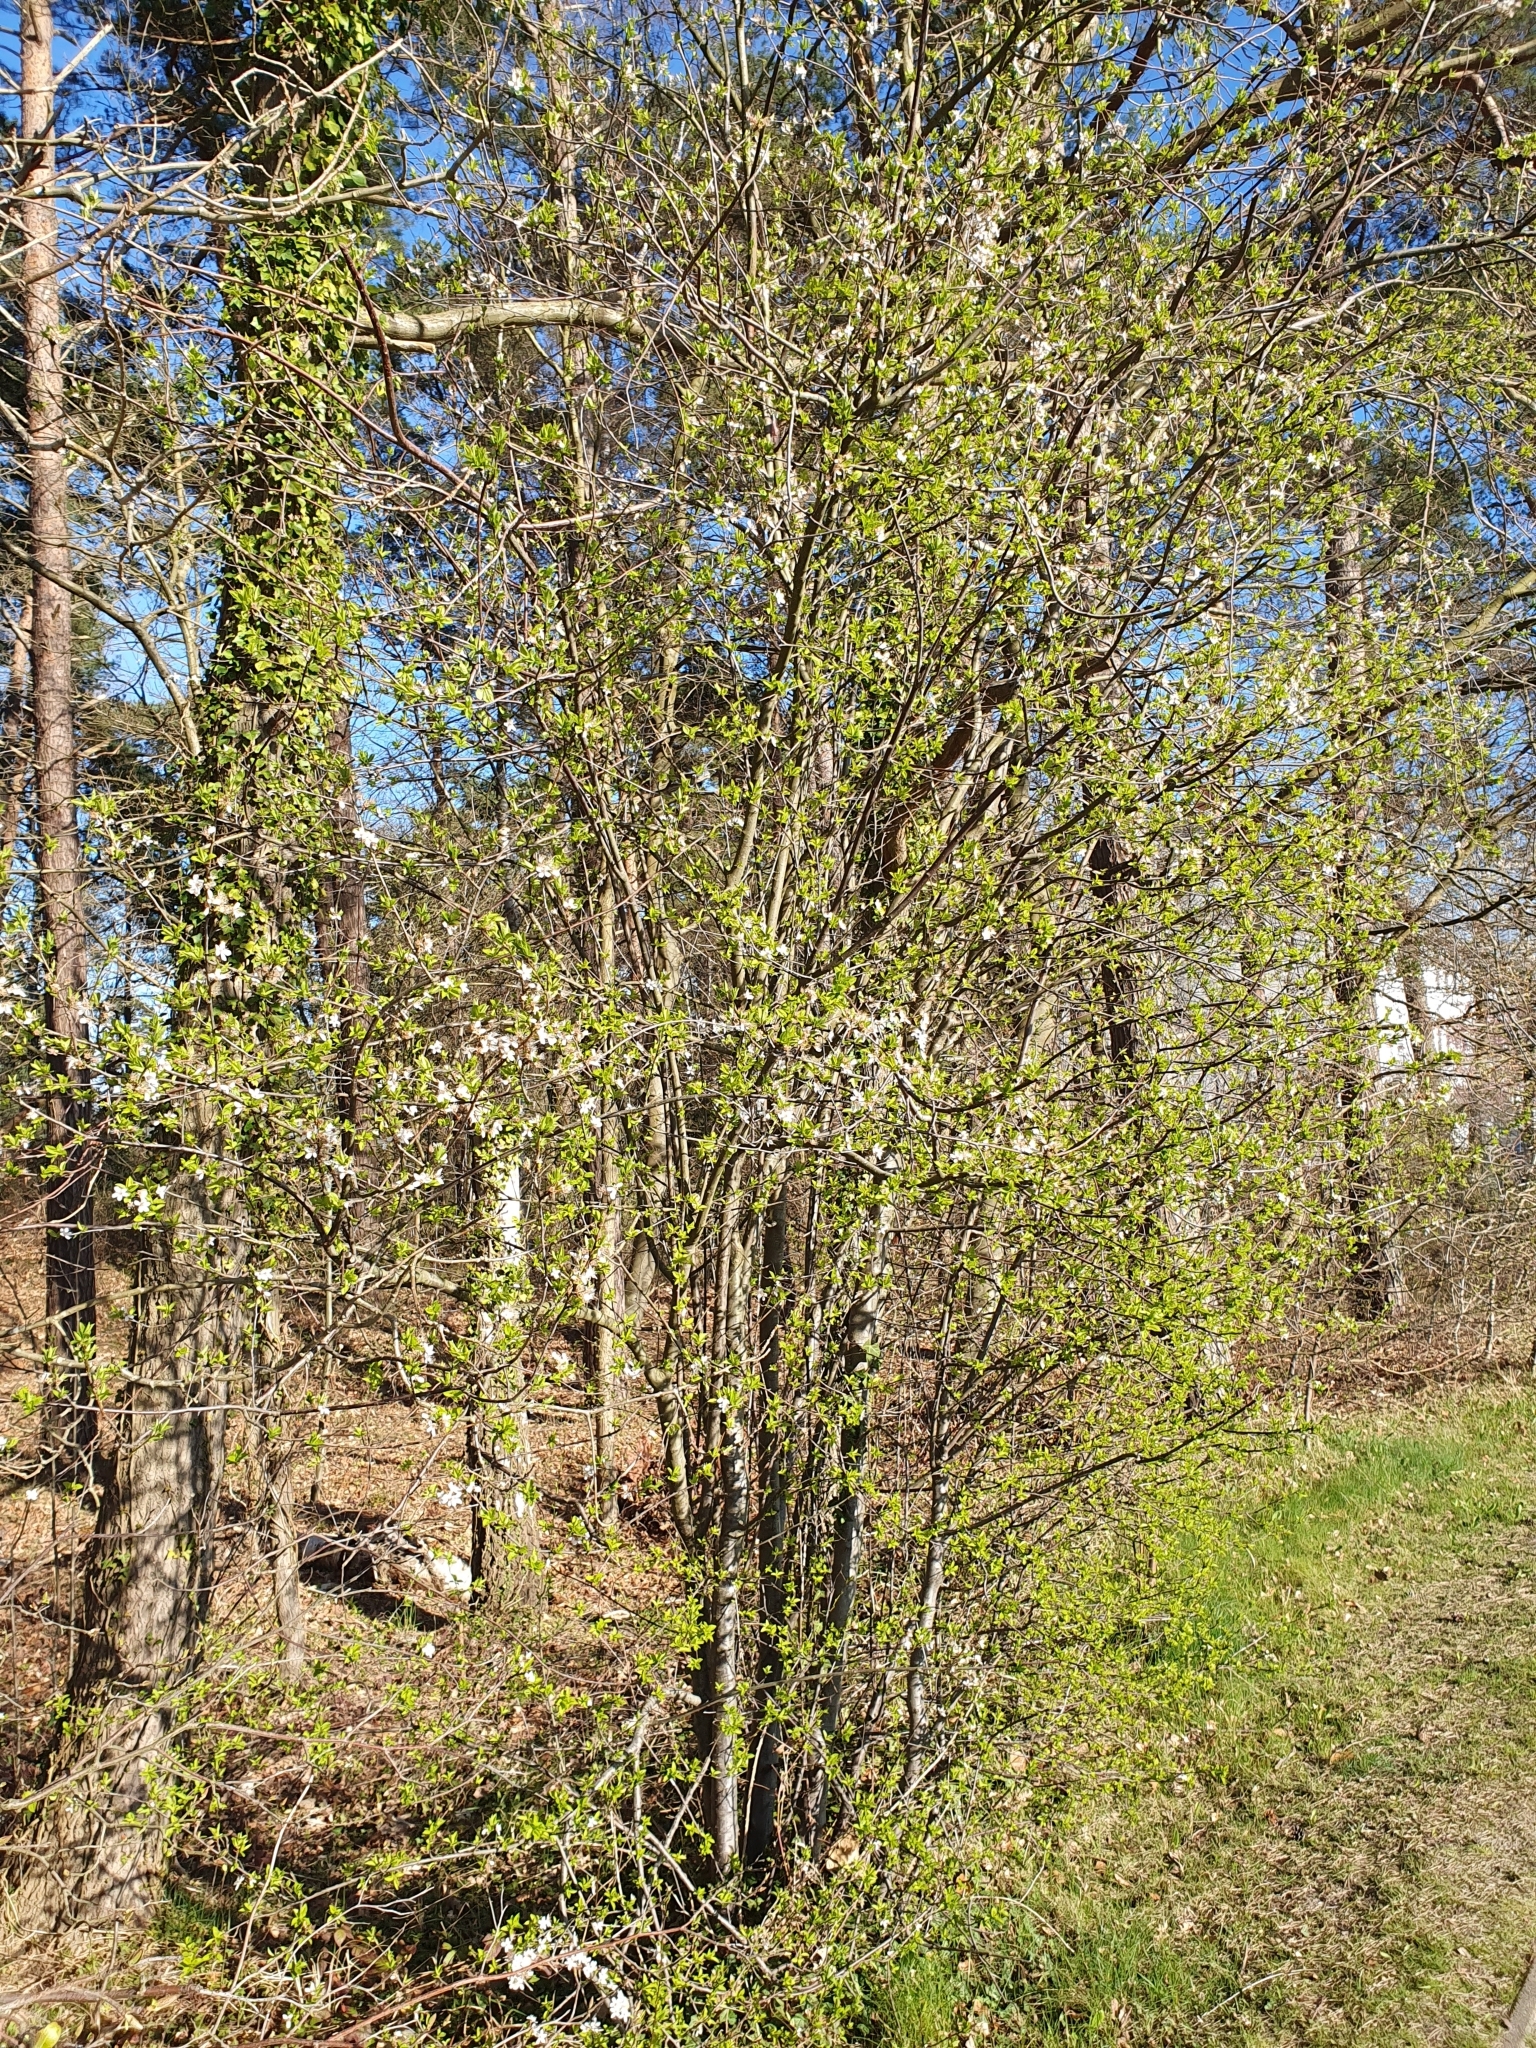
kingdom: Plantae
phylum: Tracheophyta
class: Magnoliopsida
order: Rosales
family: Rosaceae
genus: Prunus
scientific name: Prunus cerasifera
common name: Cherry plum
